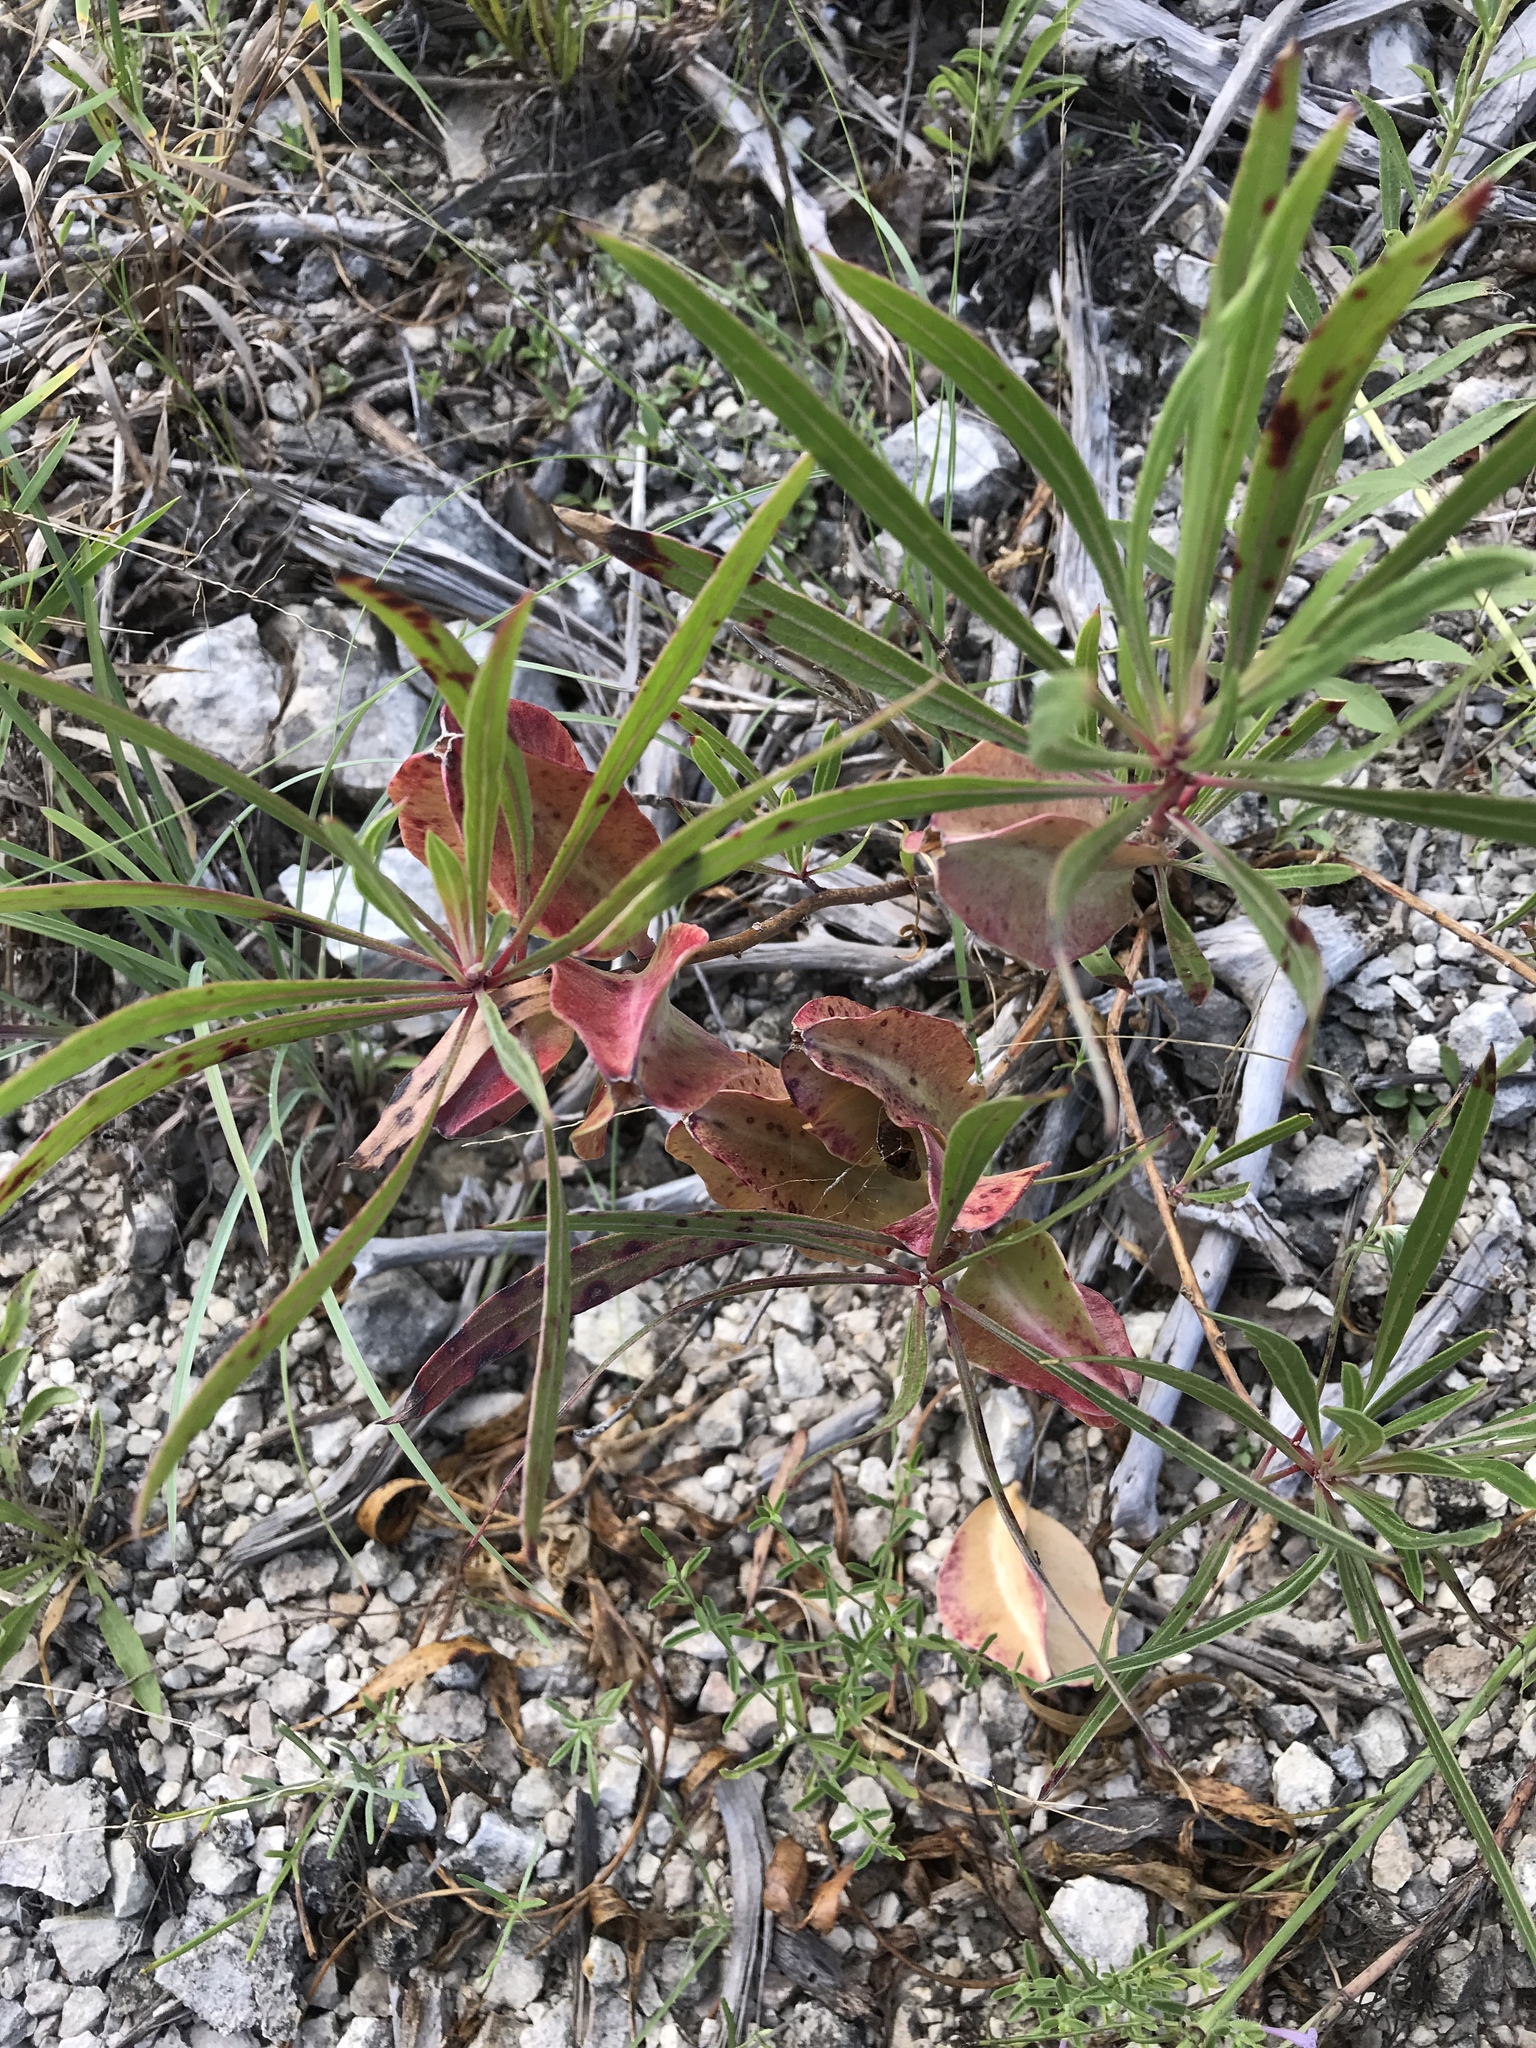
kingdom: Plantae
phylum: Tracheophyta
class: Magnoliopsida
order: Myrtales
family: Onagraceae
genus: Oenothera
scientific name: Oenothera macrocarpa
